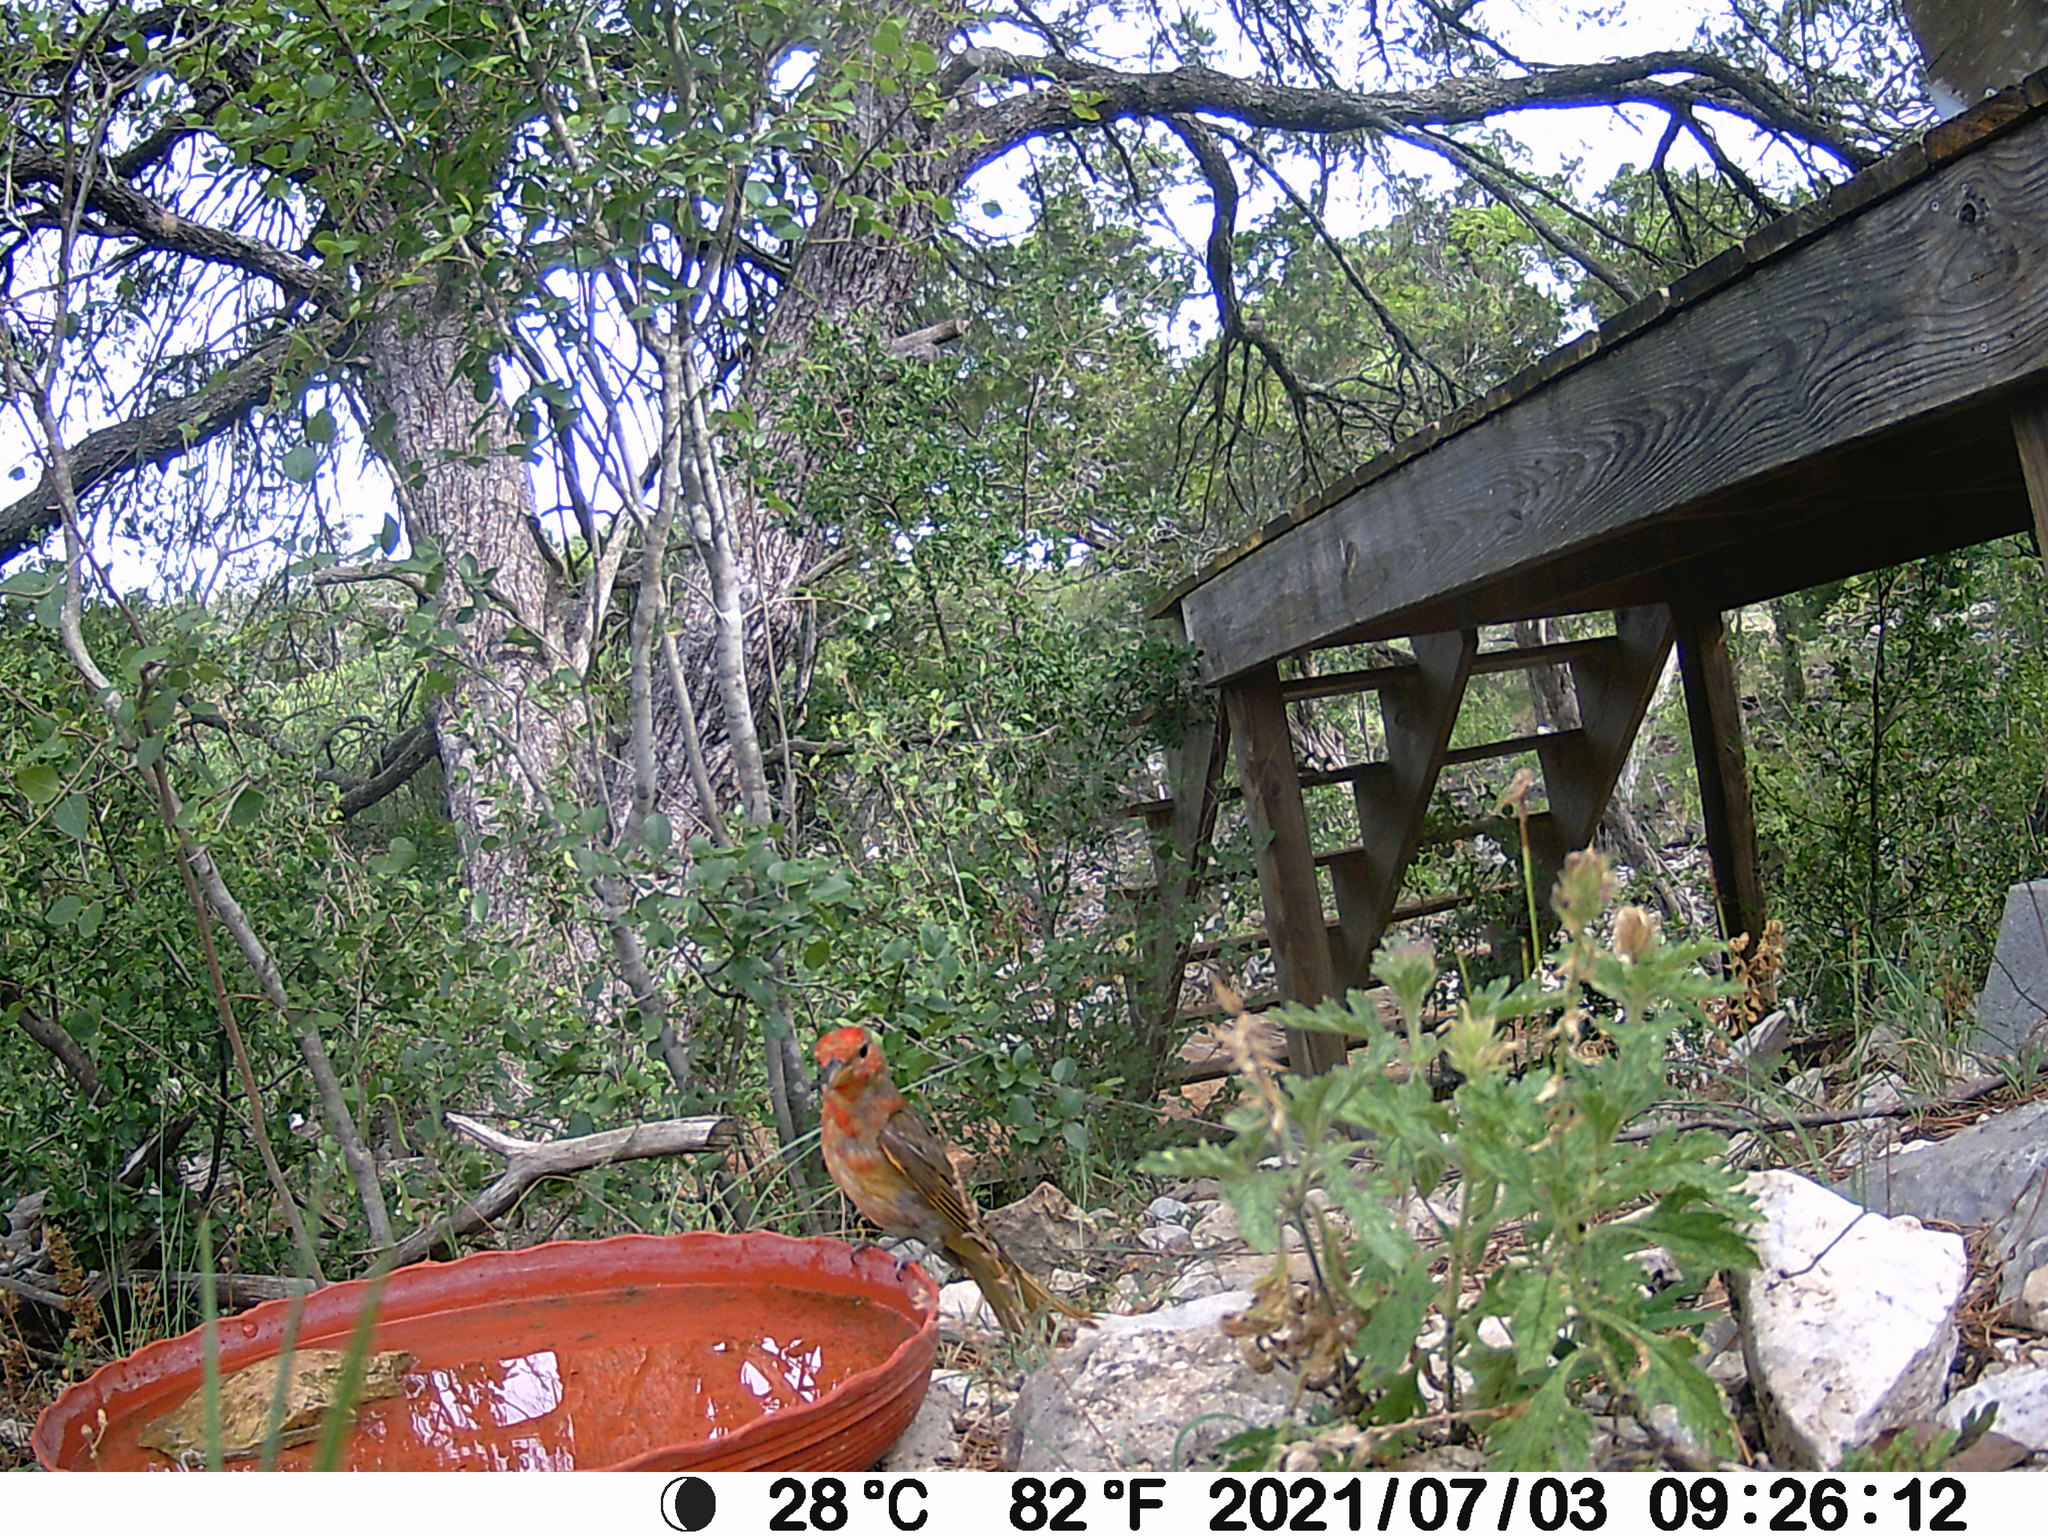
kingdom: Animalia
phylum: Chordata
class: Aves
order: Passeriformes
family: Cardinalidae
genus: Piranga
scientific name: Piranga rubra
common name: Summer tanager
